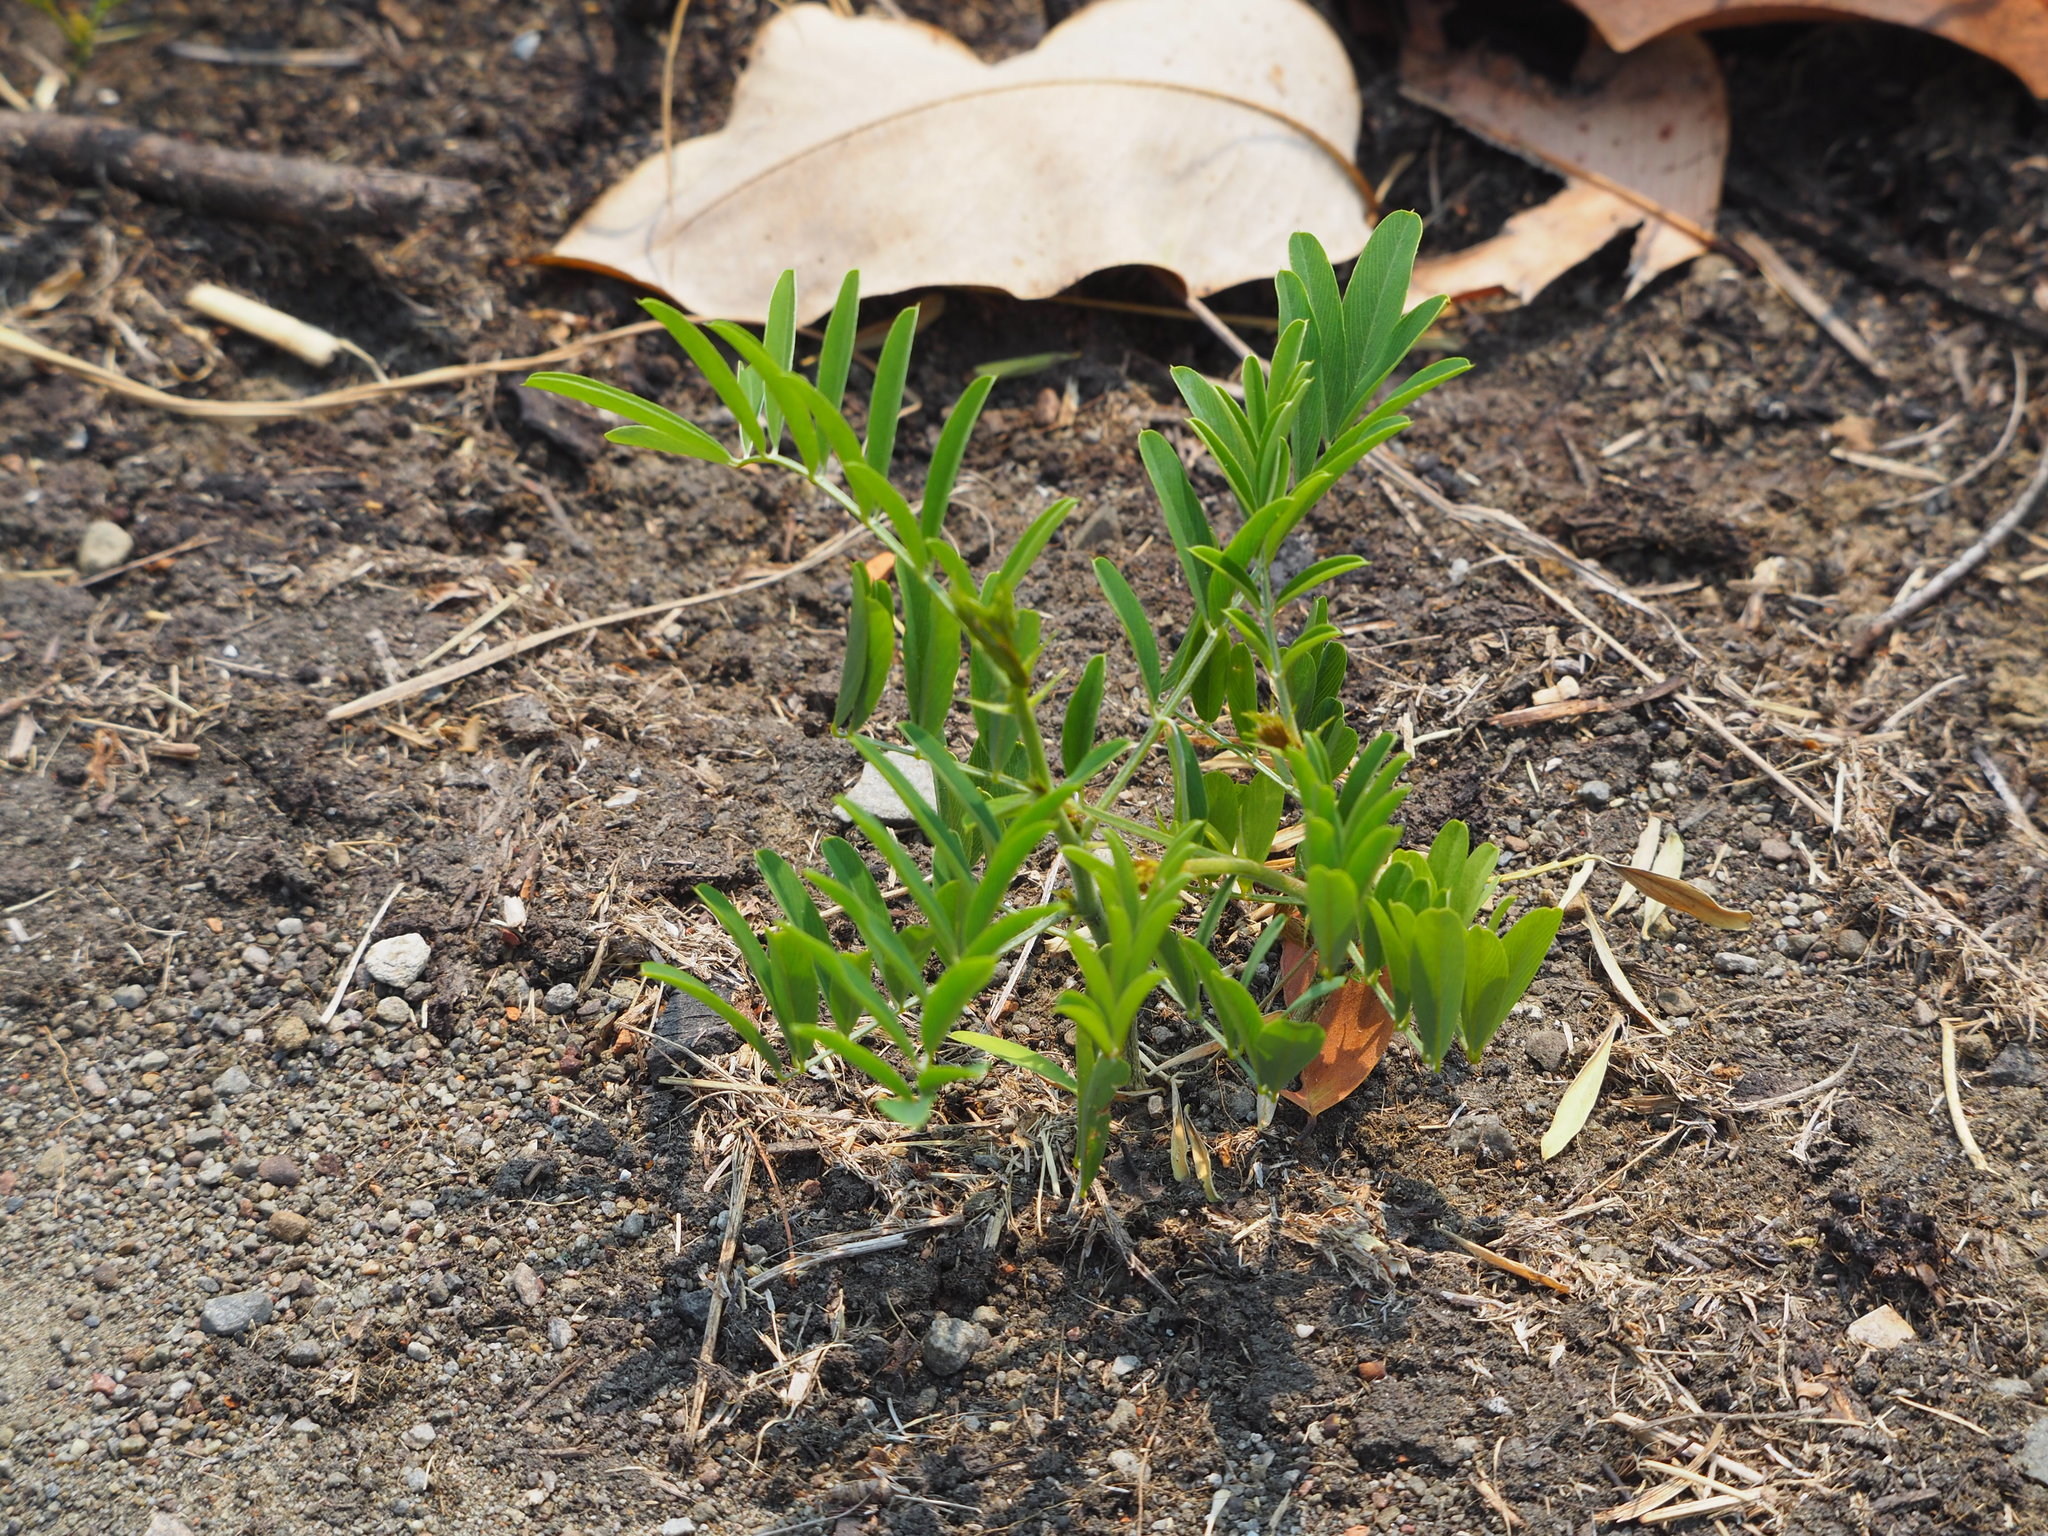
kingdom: Plantae
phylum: Tracheophyta
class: Magnoliopsida
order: Fabales
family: Fabaceae
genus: Tephrosia
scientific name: Tephrosia noctiflora
